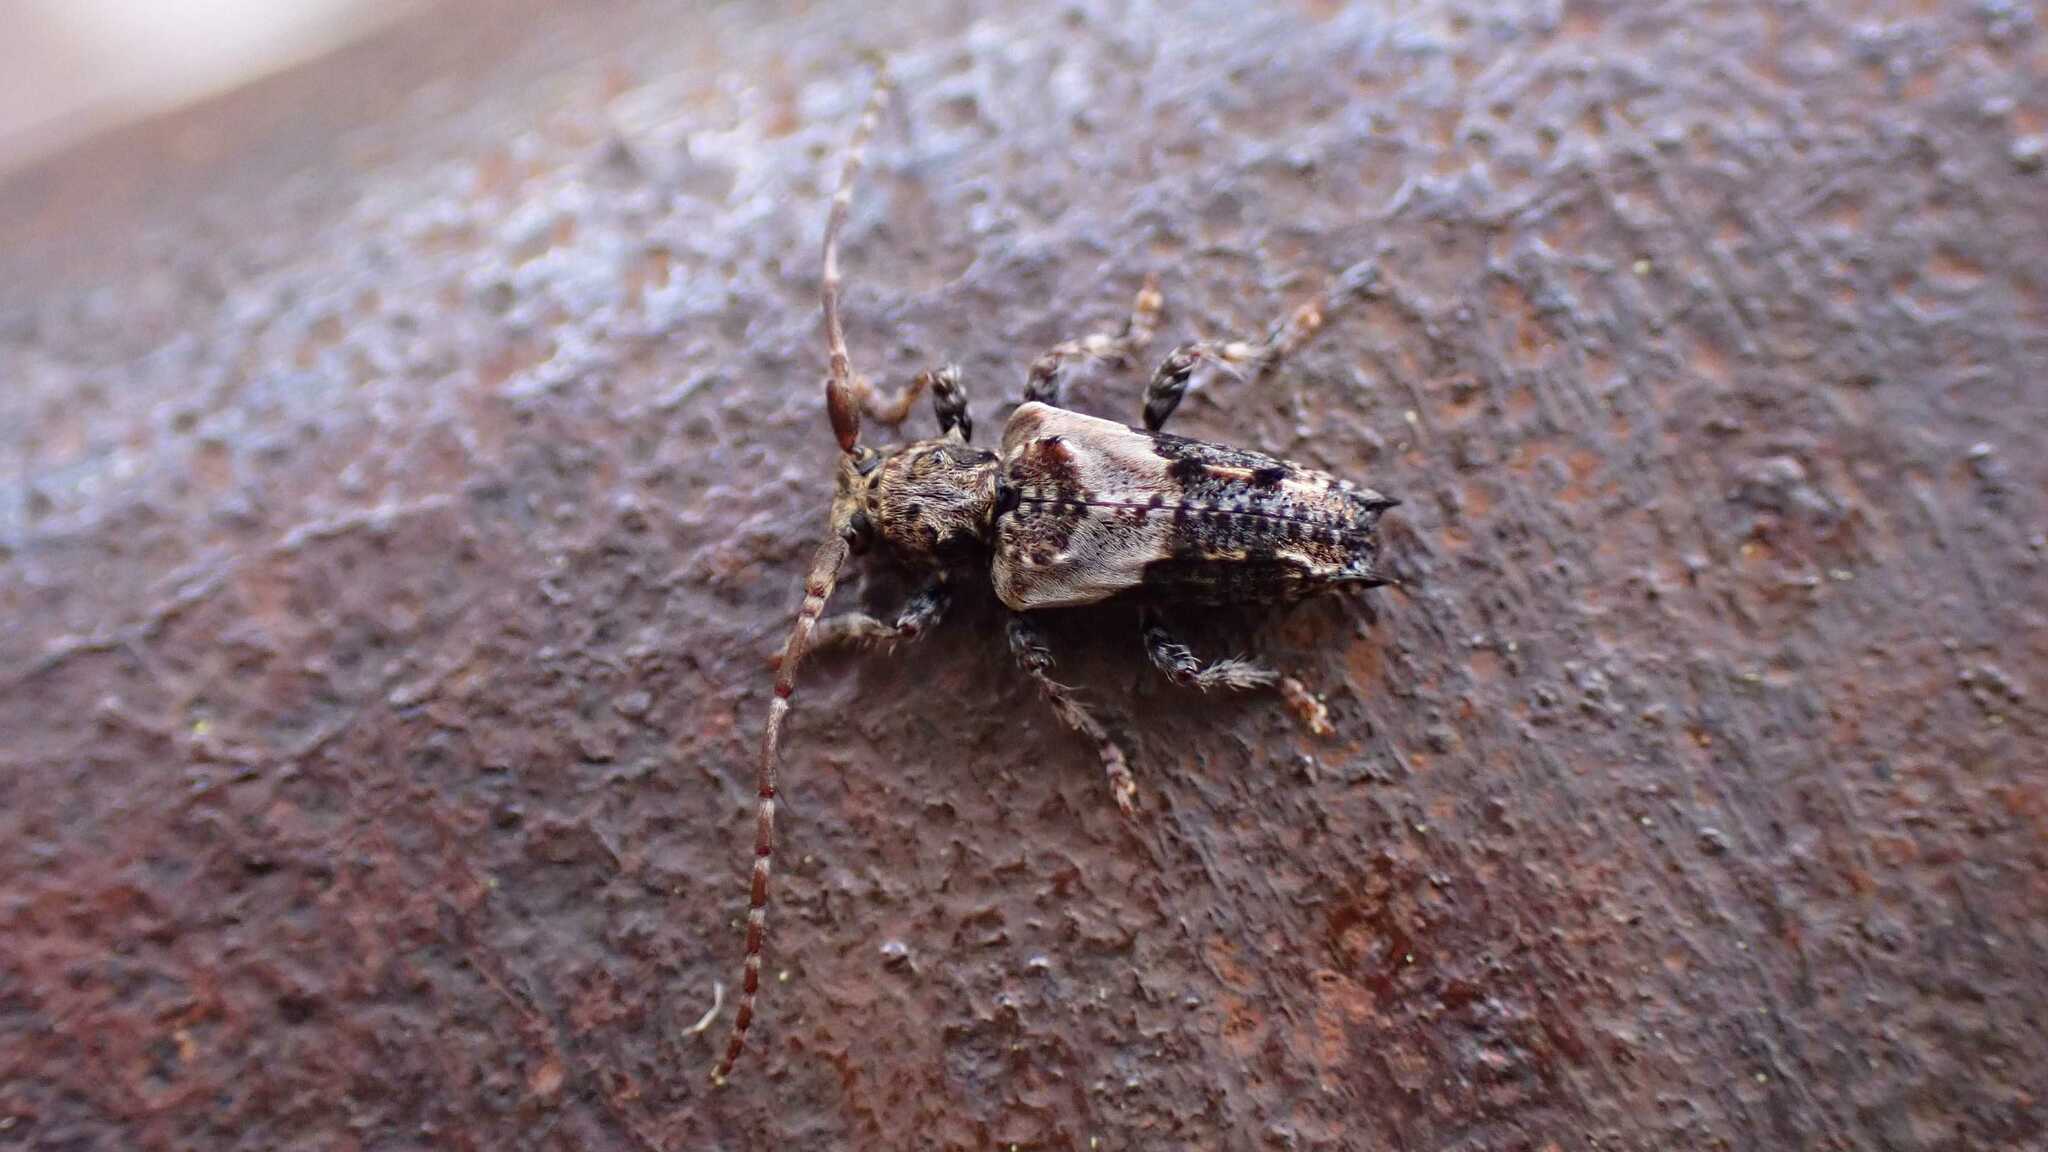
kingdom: Animalia
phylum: Arthropoda
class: Insecta
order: Coleoptera
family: Cerambycidae
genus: Pogonocherus
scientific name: Pogonocherus hispidus
